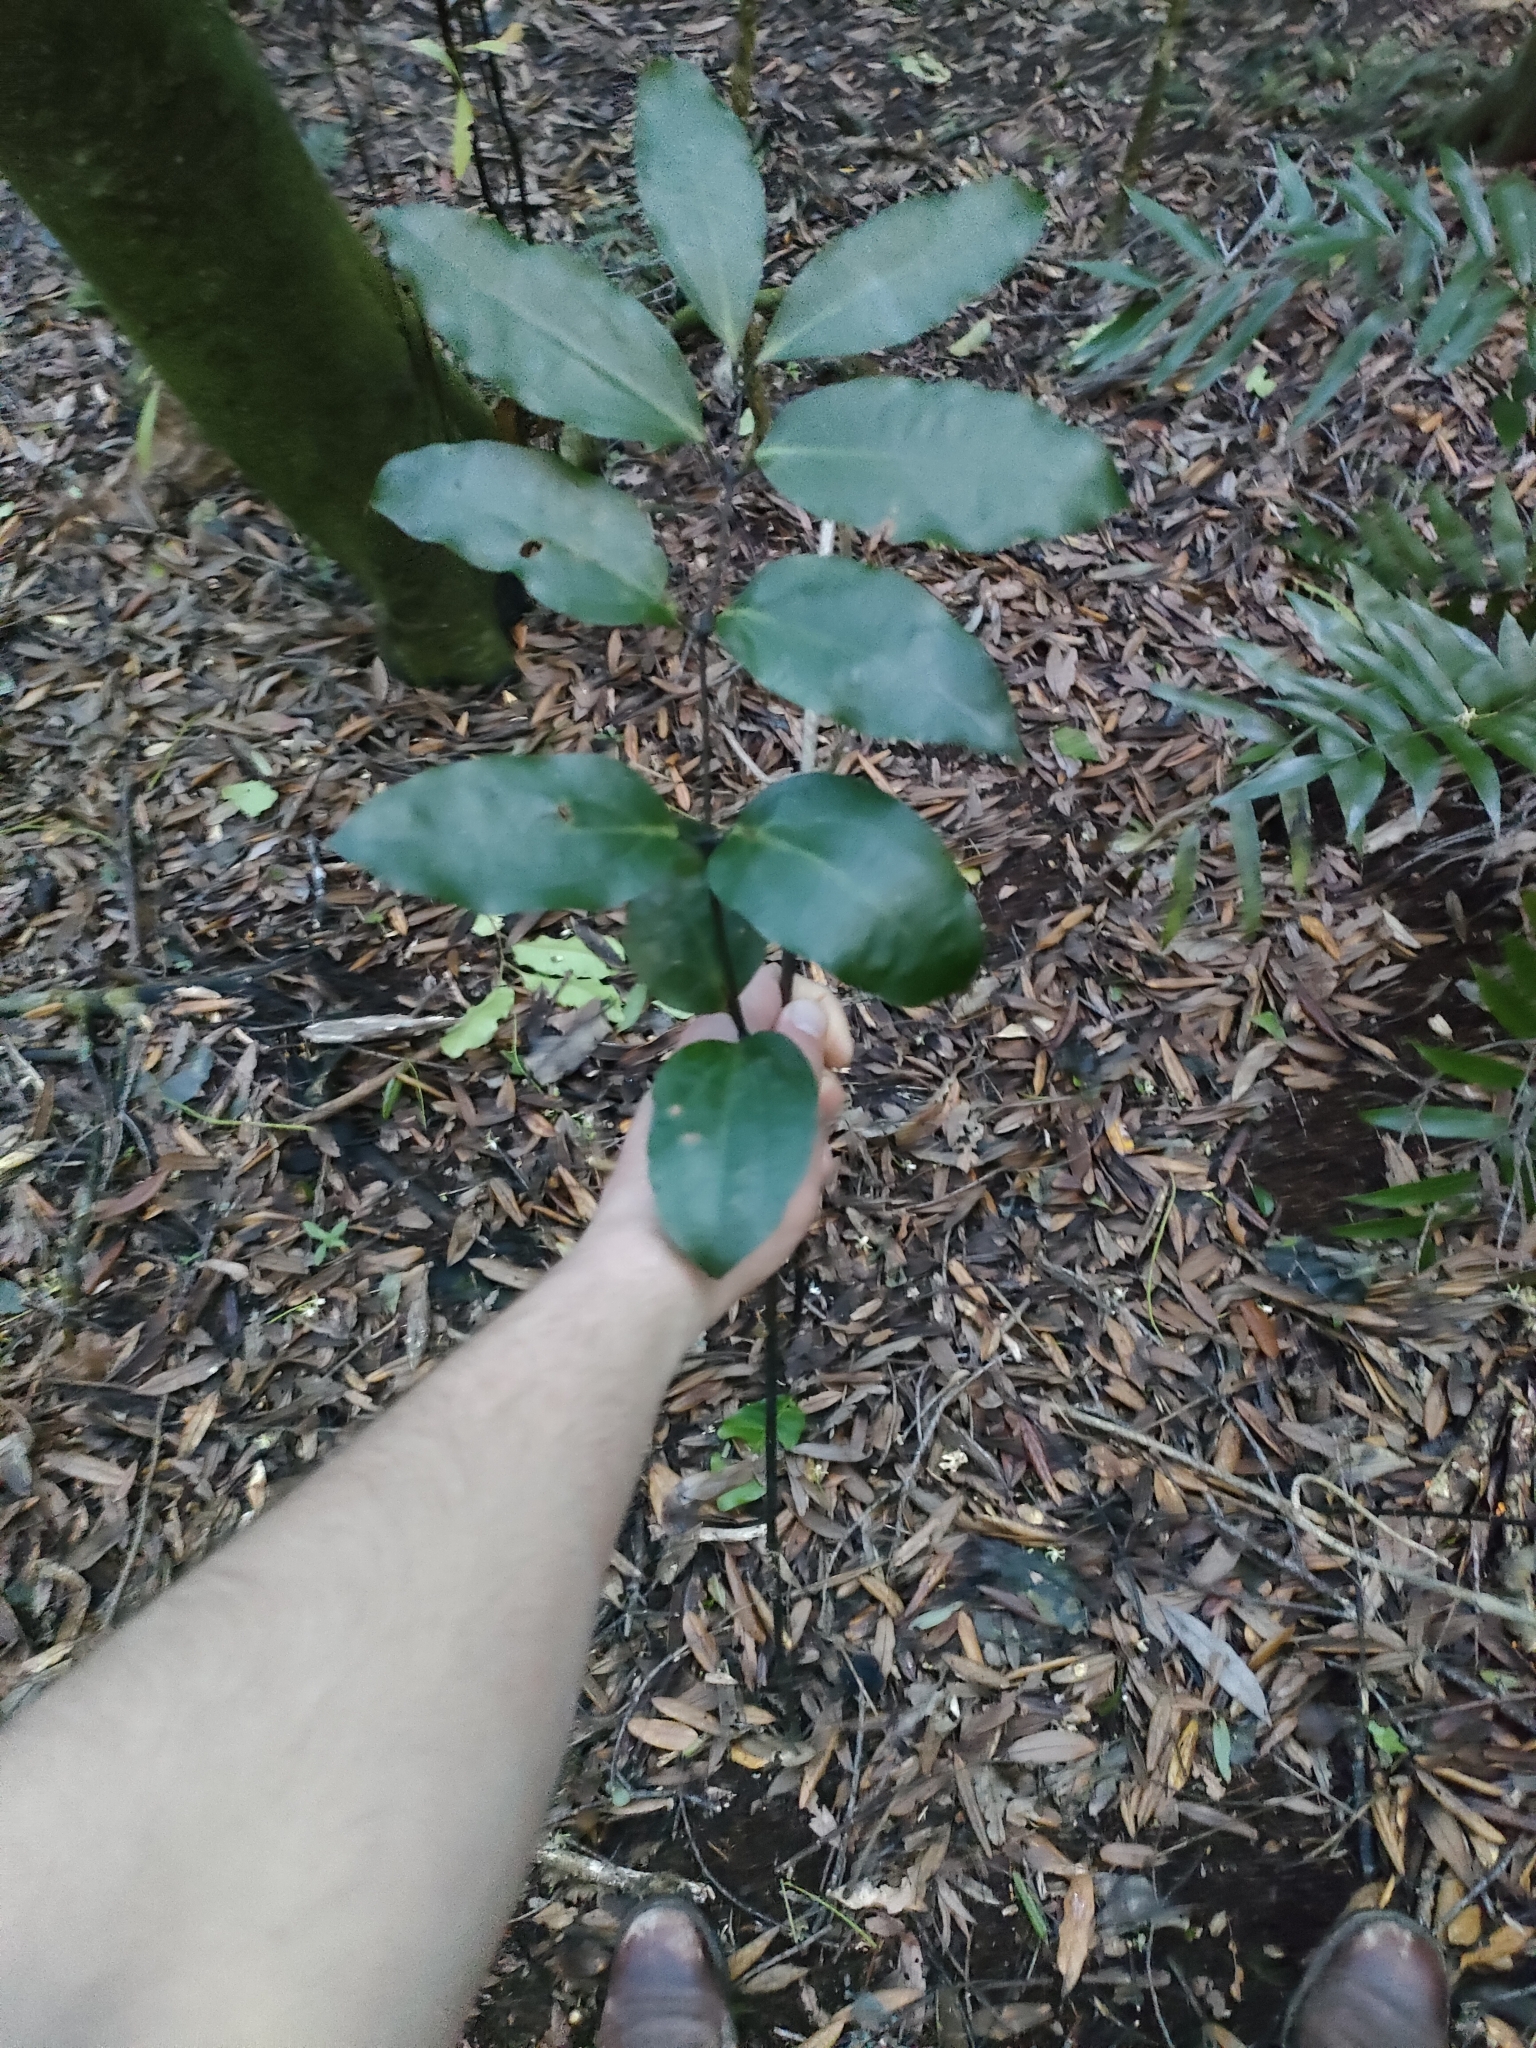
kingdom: Plantae
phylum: Tracheophyta
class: Liliopsida
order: Liliales
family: Ripogonaceae
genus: Ripogonum
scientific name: Ripogonum scandens
